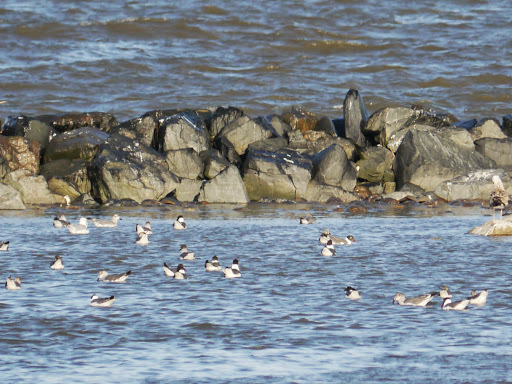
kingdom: Animalia
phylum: Chordata
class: Aves
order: Charadriiformes
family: Laridae
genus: Leucophaeus
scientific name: Leucophaeus atricilla
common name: Laughing gull
